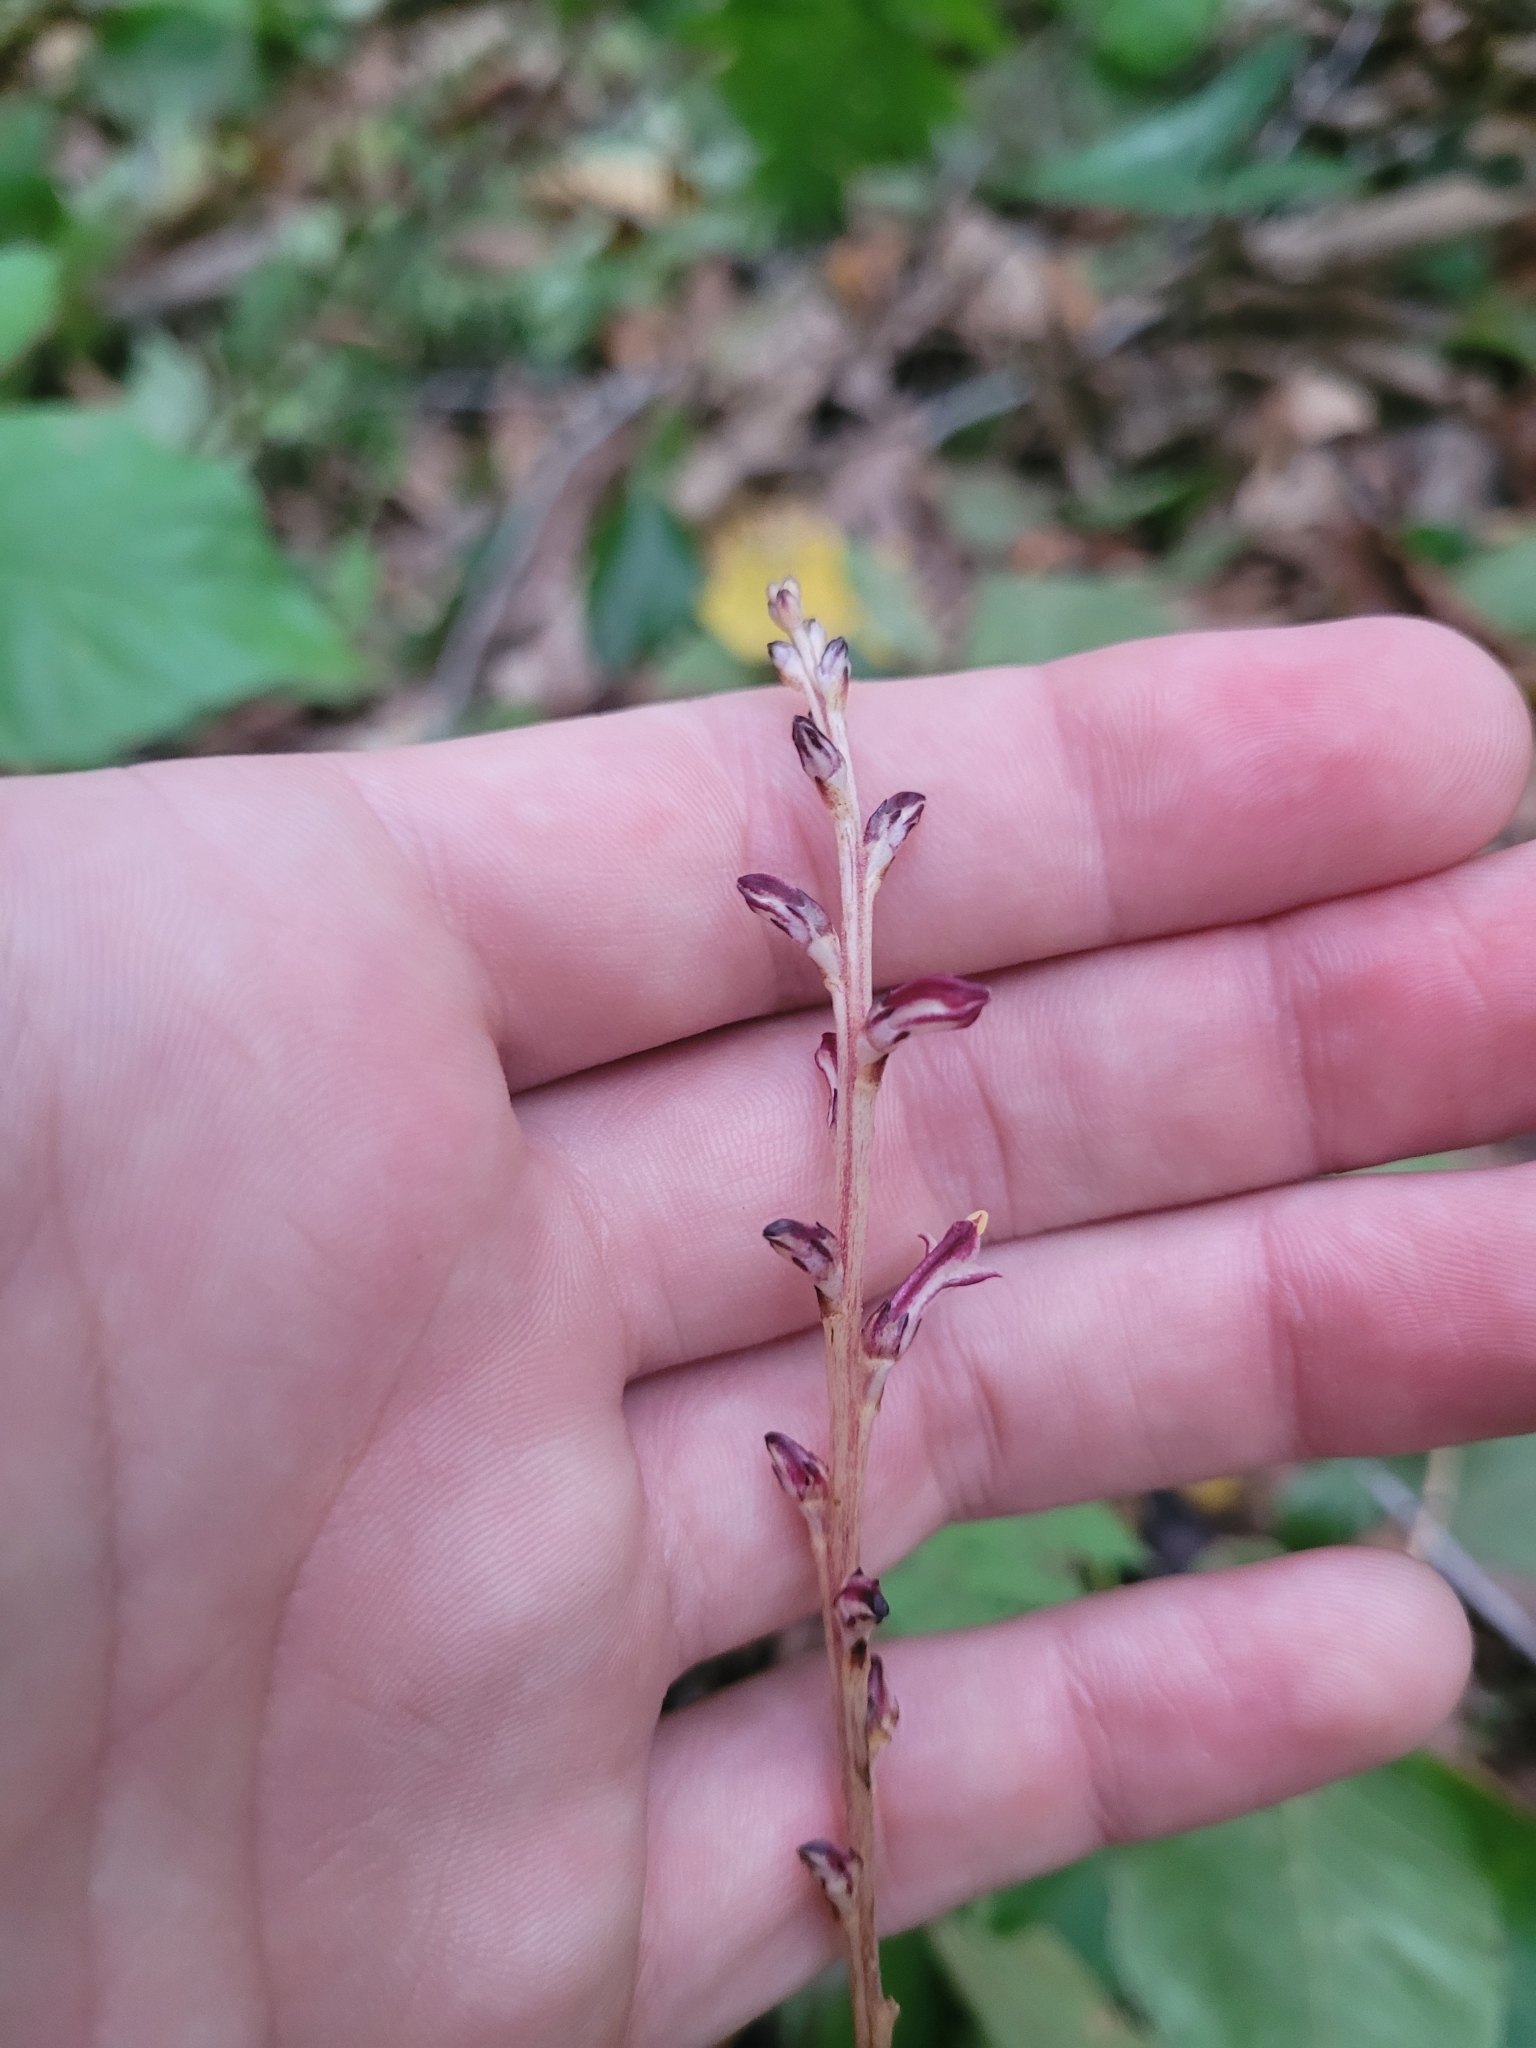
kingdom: Plantae
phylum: Tracheophyta
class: Magnoliopsida
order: Lamiales
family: Orobanchaceae
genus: Epifagus
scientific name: Epifagus virginiana
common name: Beechdrops
